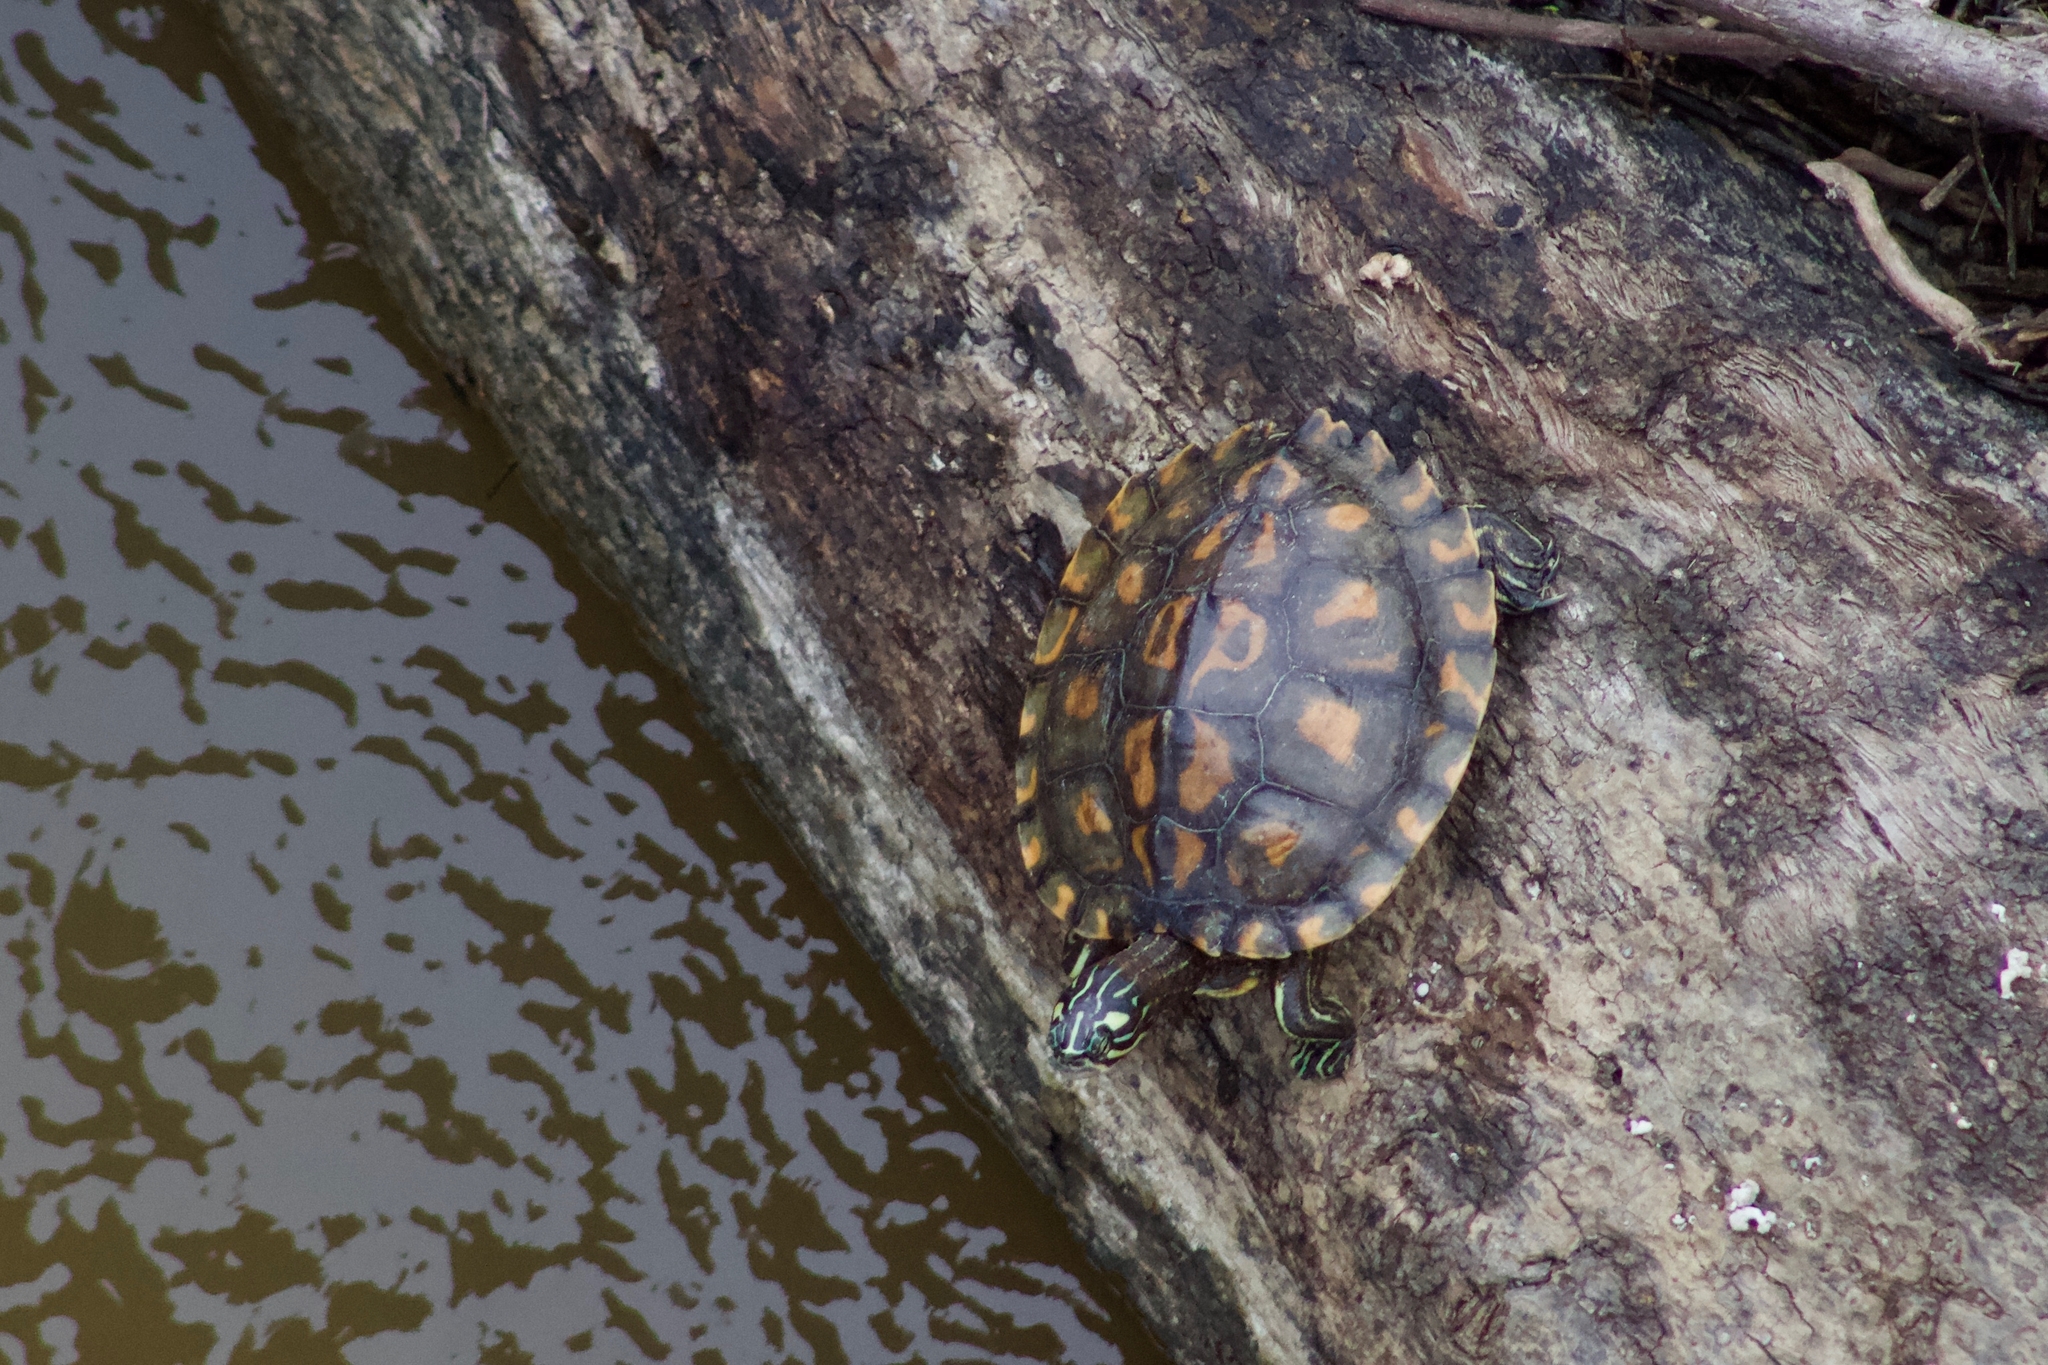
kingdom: Animalia
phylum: Chordata
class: Testudines
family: Emydidae
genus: Graptemys
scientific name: Graptemys flavimaculata
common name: Yellow-blotched map turtle
